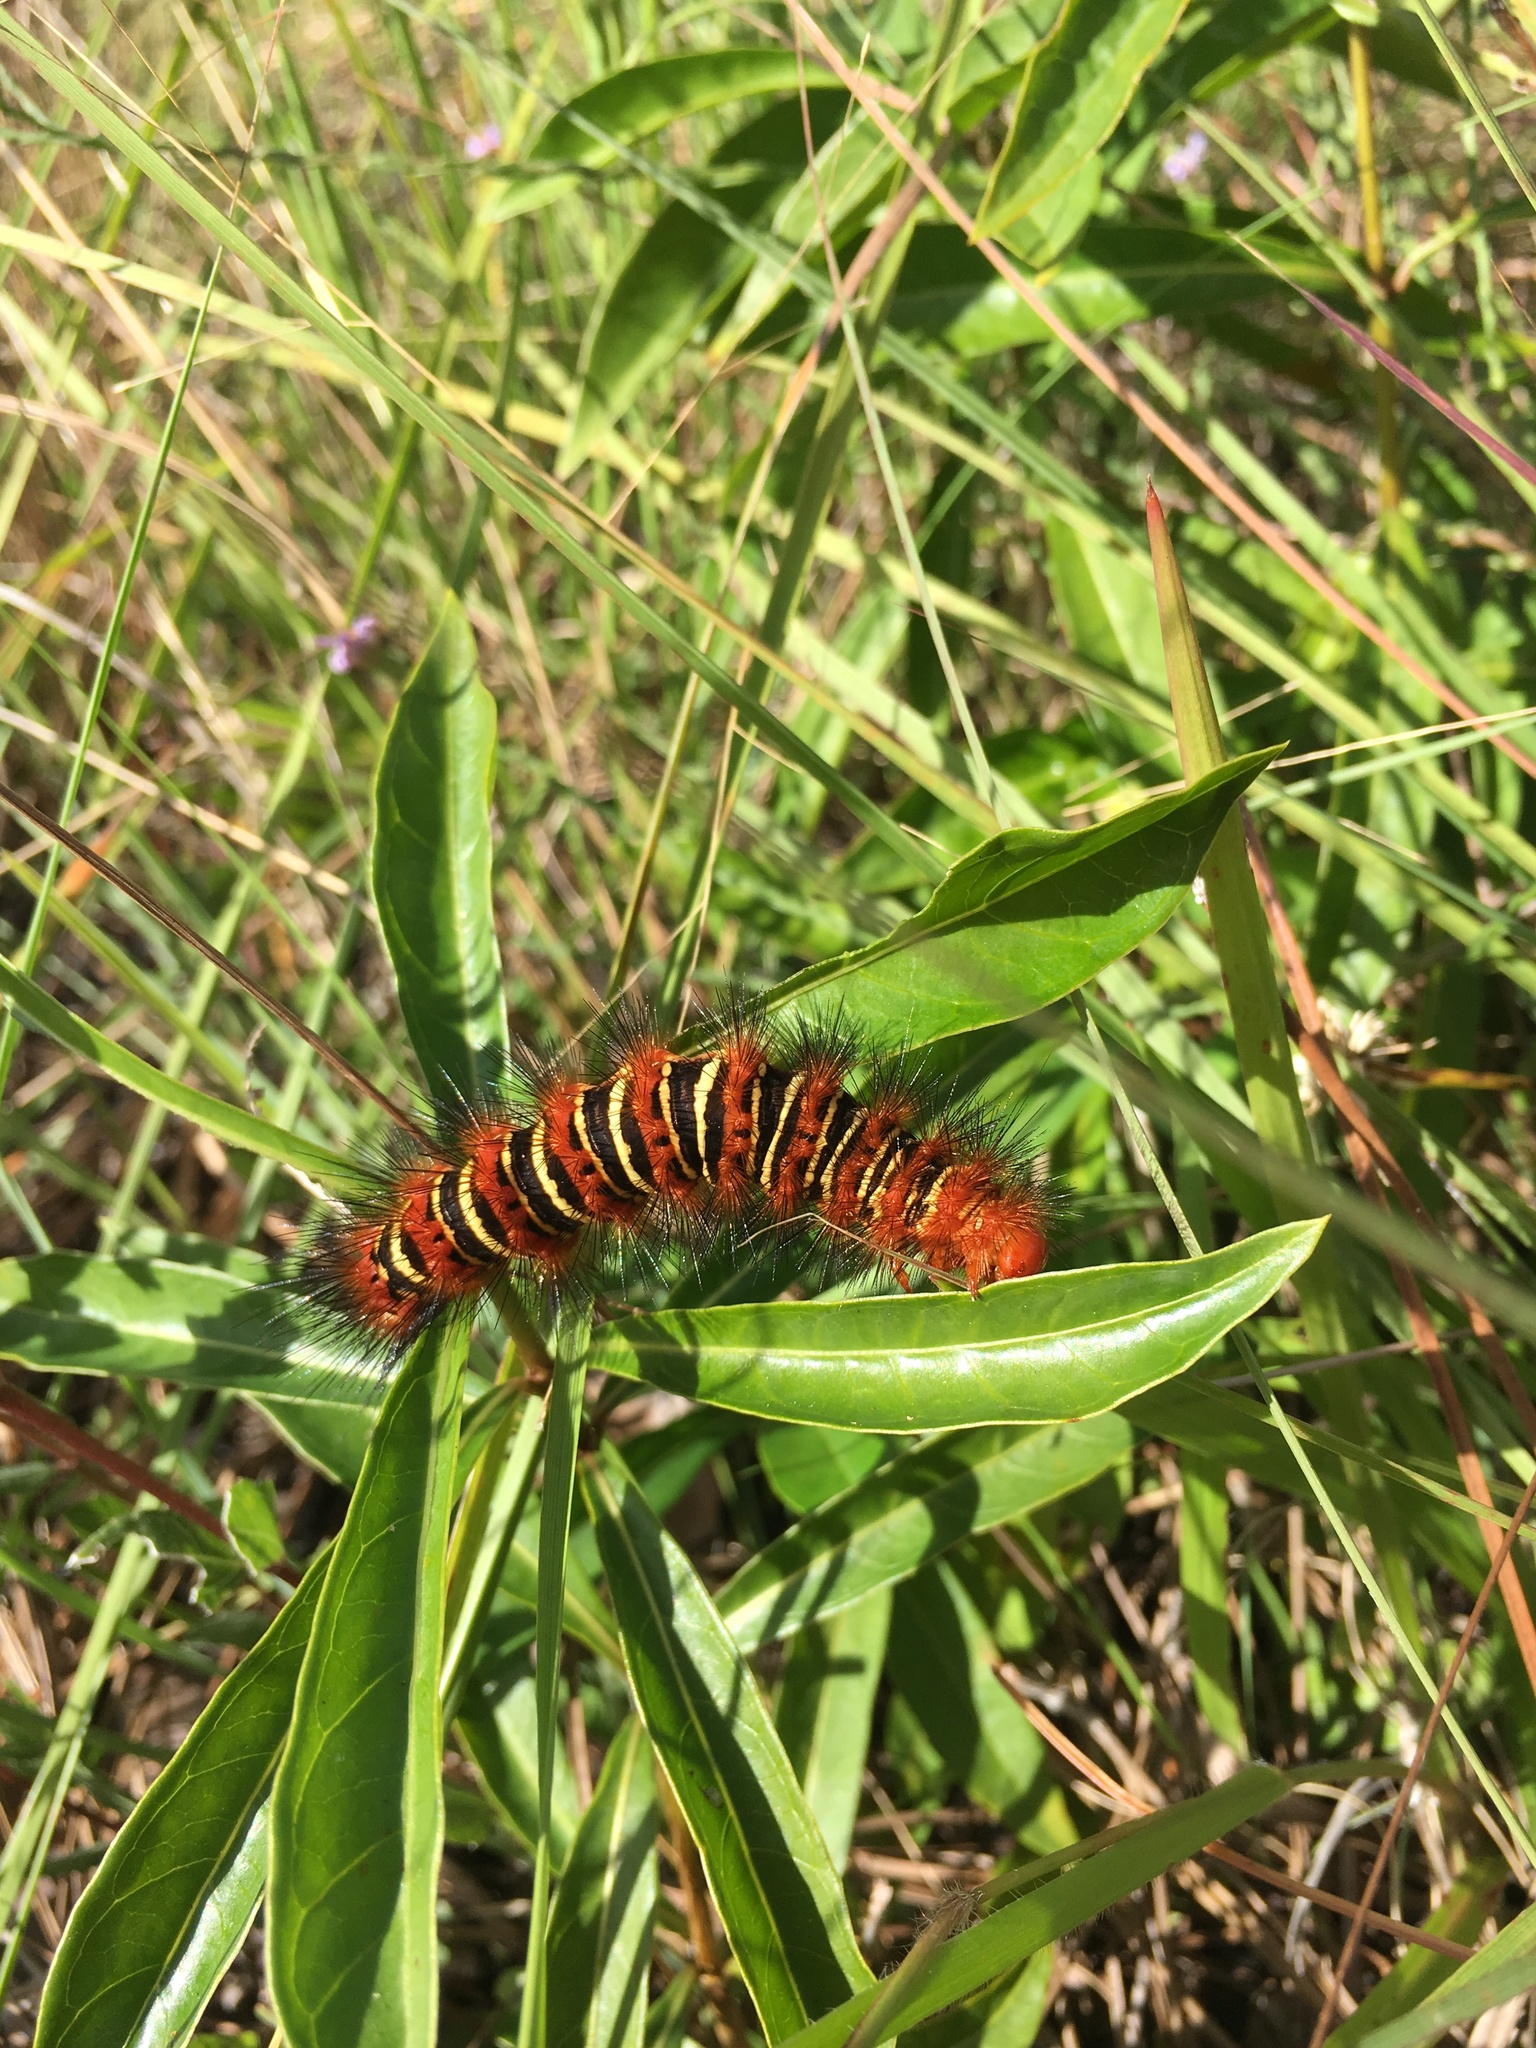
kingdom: Animalia
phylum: Arthropoda
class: Insecta
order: Lepidoptera
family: Erebidae
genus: Seirarctia
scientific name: Seirarctia echo
